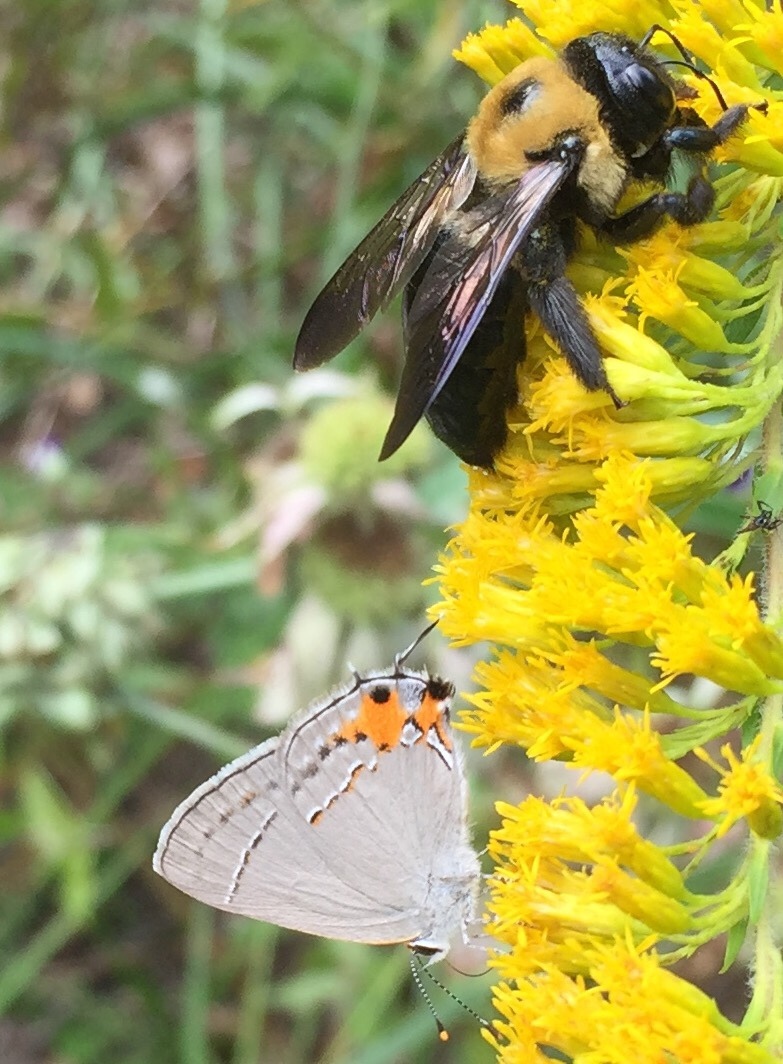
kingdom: Animalia
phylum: Arthropoda
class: Insecta
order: Lepidoptera
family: Lycaenidae
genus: Strymon
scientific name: Strymon melinus
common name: Gray hairstreak
